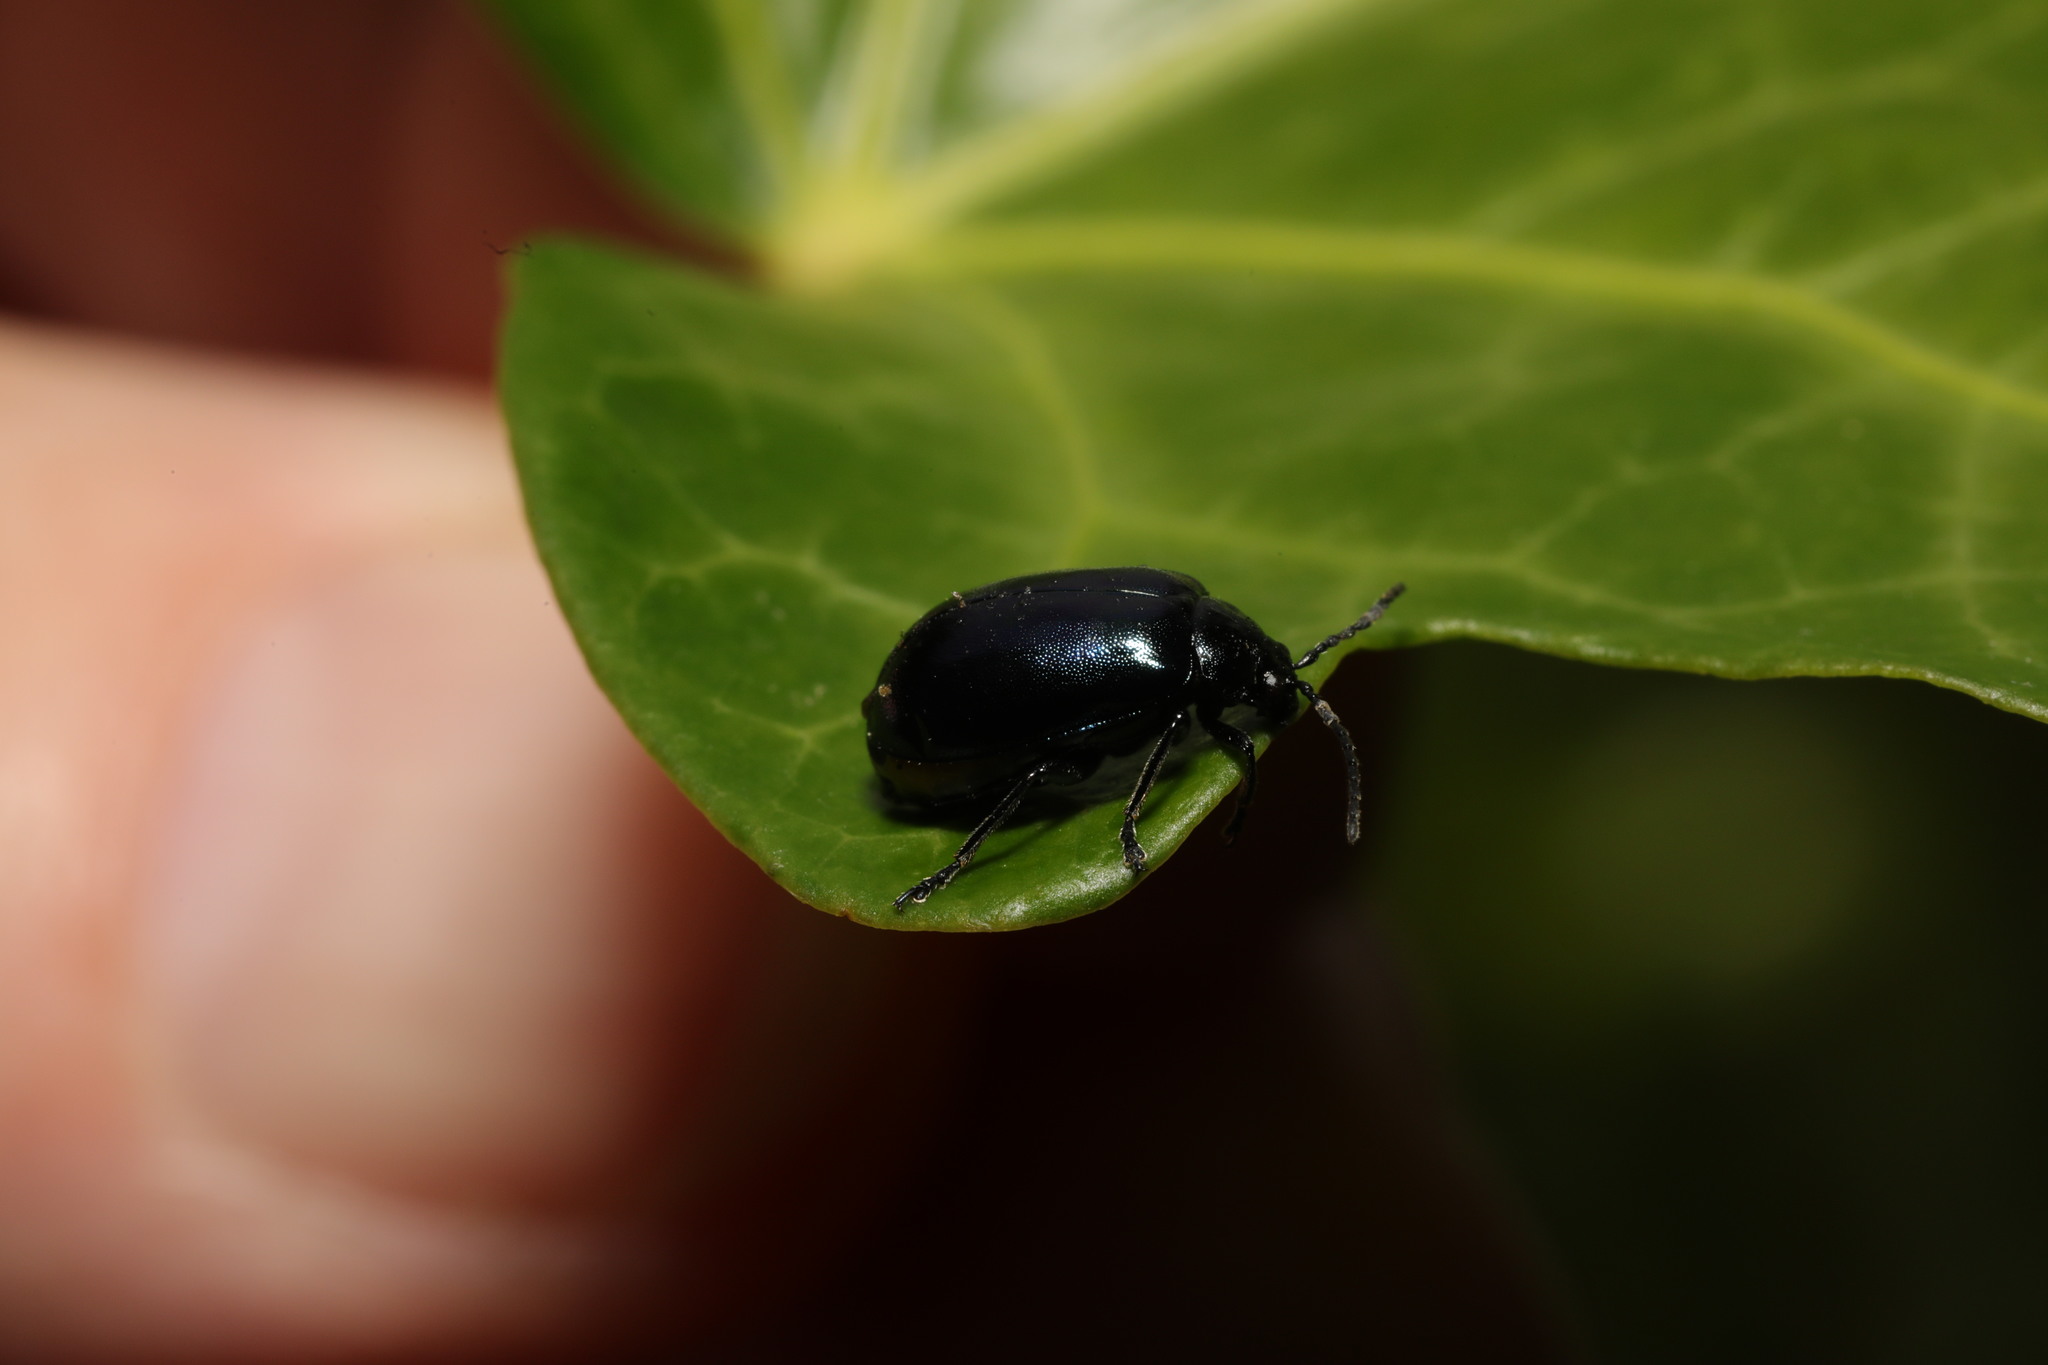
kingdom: Animalia
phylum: Arthropoda
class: Insecta
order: Coleoptera
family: Chrysomelidae
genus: Agelastica
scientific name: Agelastica alni
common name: Alder leaf beetle
